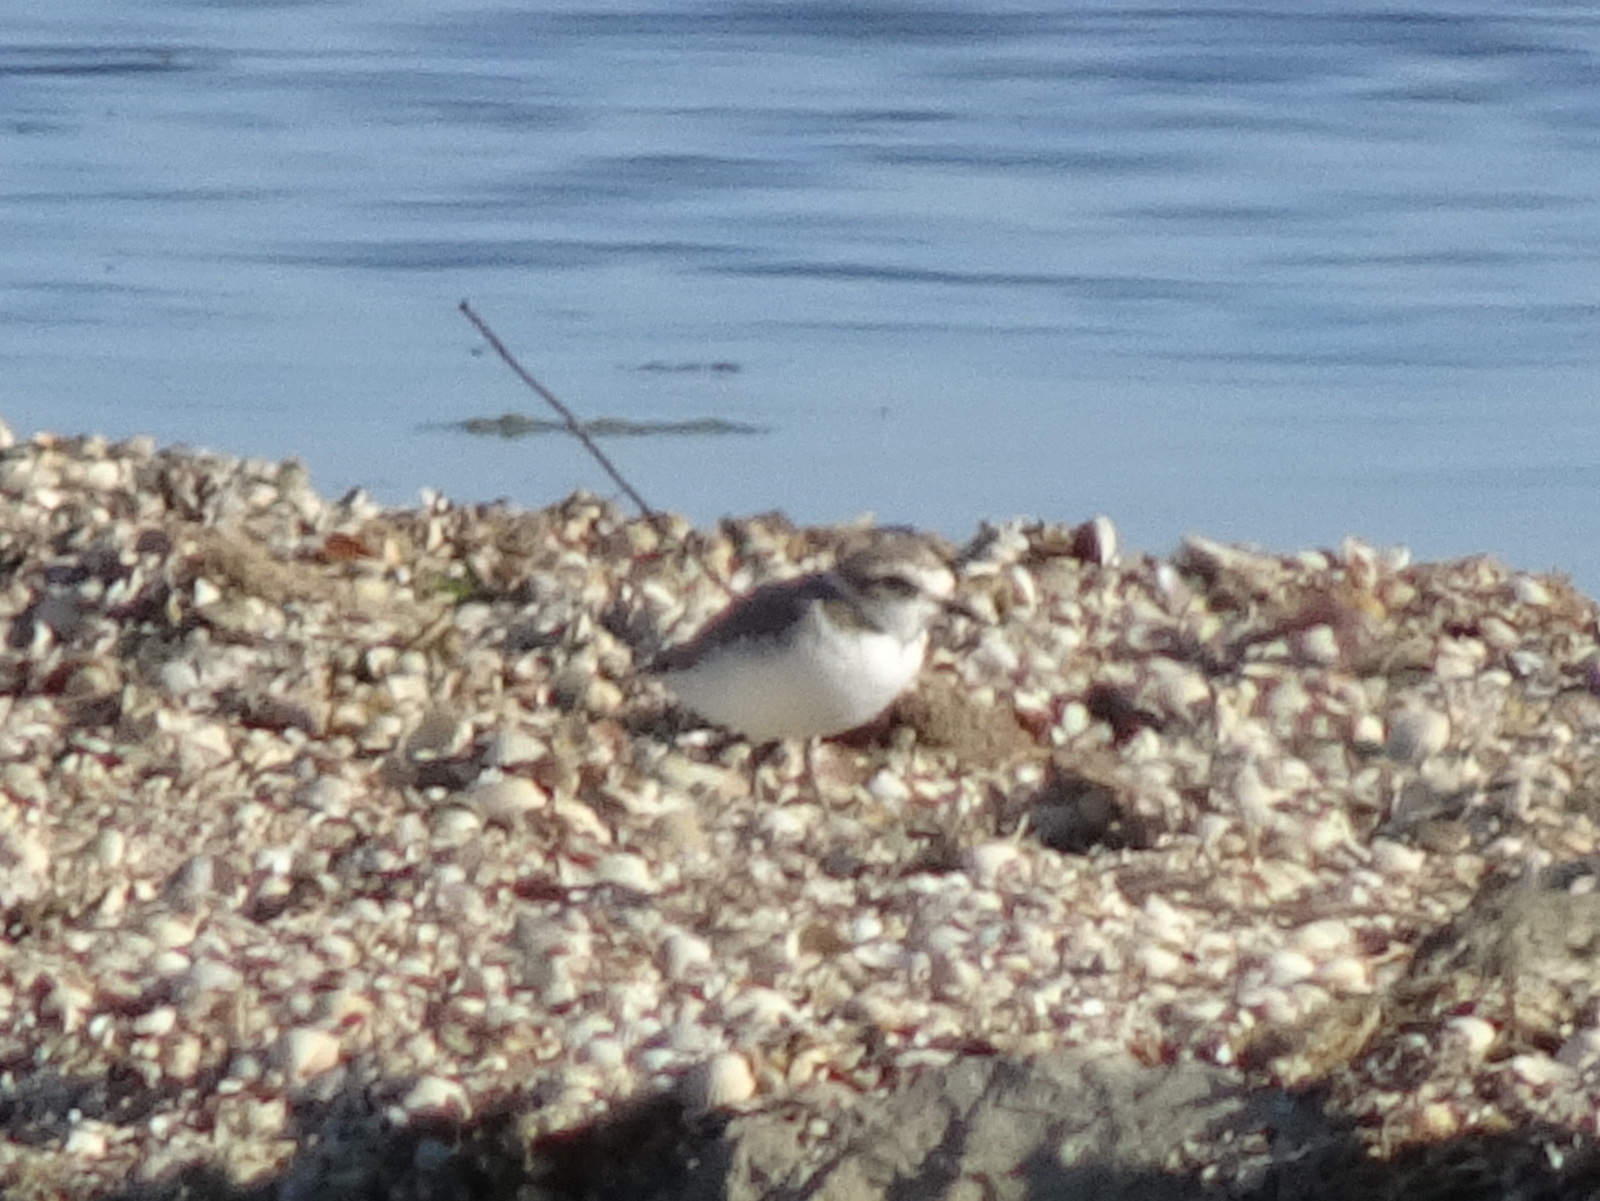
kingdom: Animalia
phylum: Chordata
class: Aves
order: Charadriiformes
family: Charadriidae
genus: Charadrius
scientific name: Charadrius alexandrinus
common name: Kentish plover
